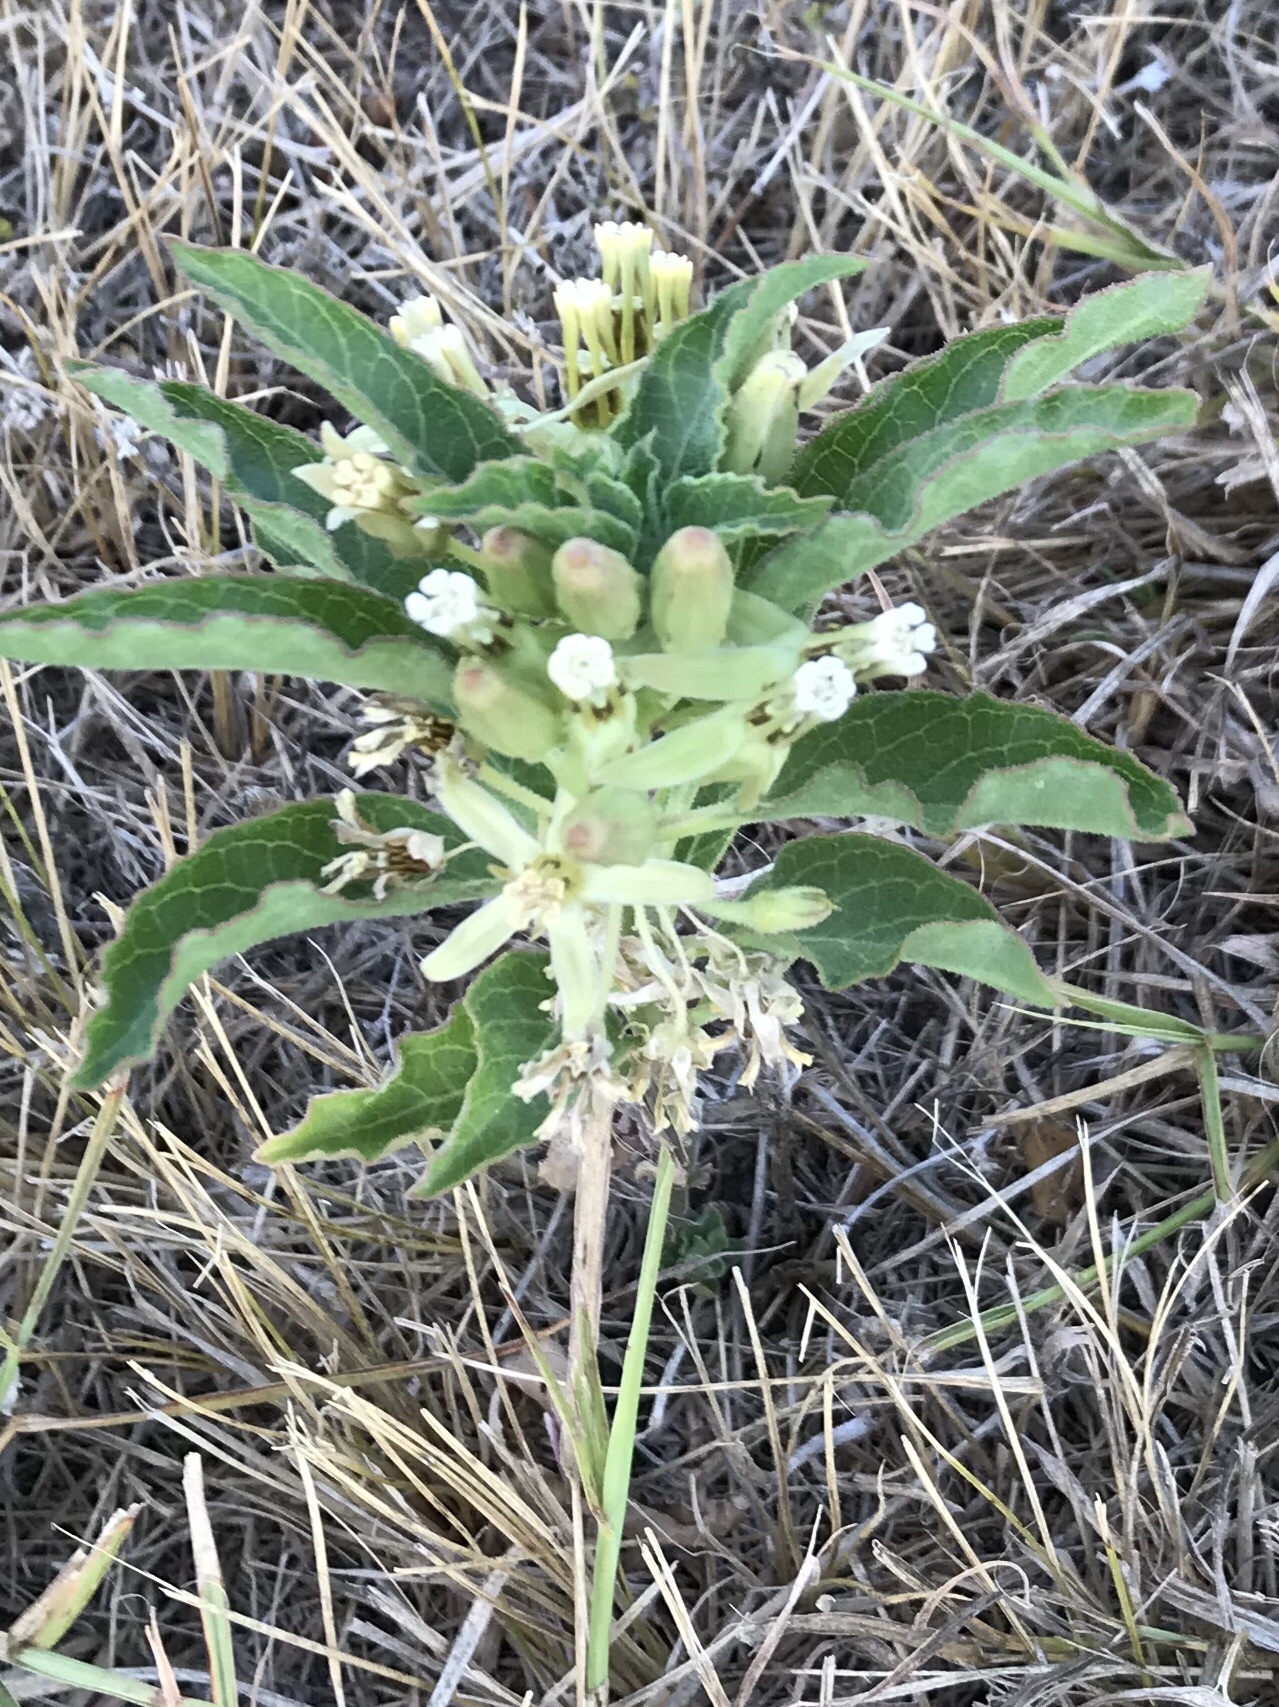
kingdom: Plantae
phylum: Tracheophyta
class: Magnoliopsida
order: Gentianales
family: Apocynaceae
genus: Asclepias
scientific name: Asclepias oenotheroides
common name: Zizotes milkweed
